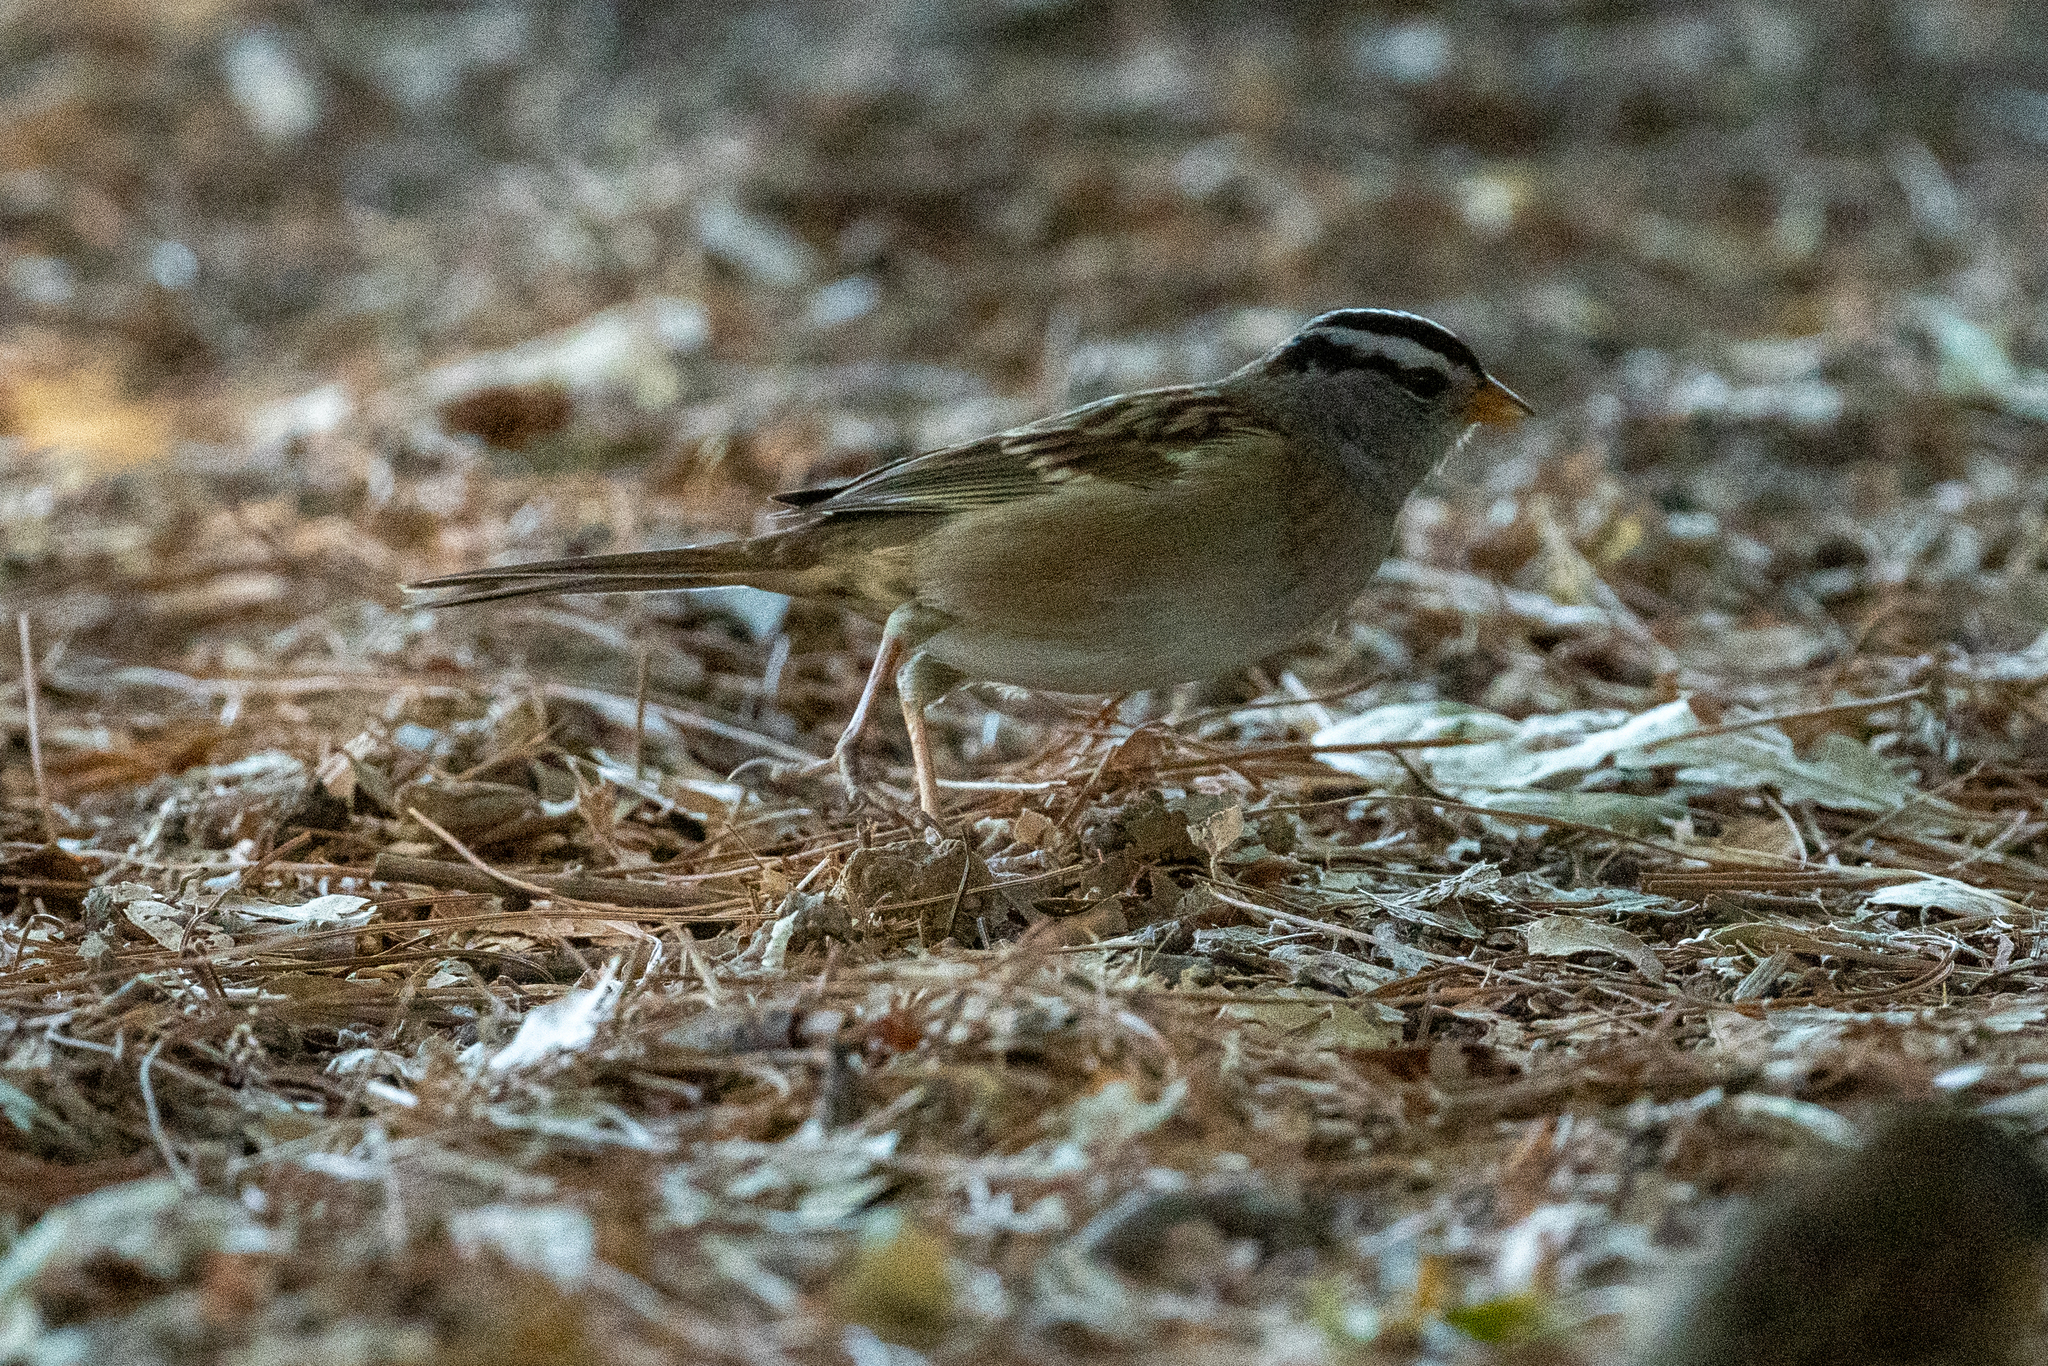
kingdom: Animalia
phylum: Chordata
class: Aves
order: Passeriformes
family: Passerellidae
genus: Zonotrichia
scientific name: Zonotrichia leucophrys
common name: White-crowned sparrow
